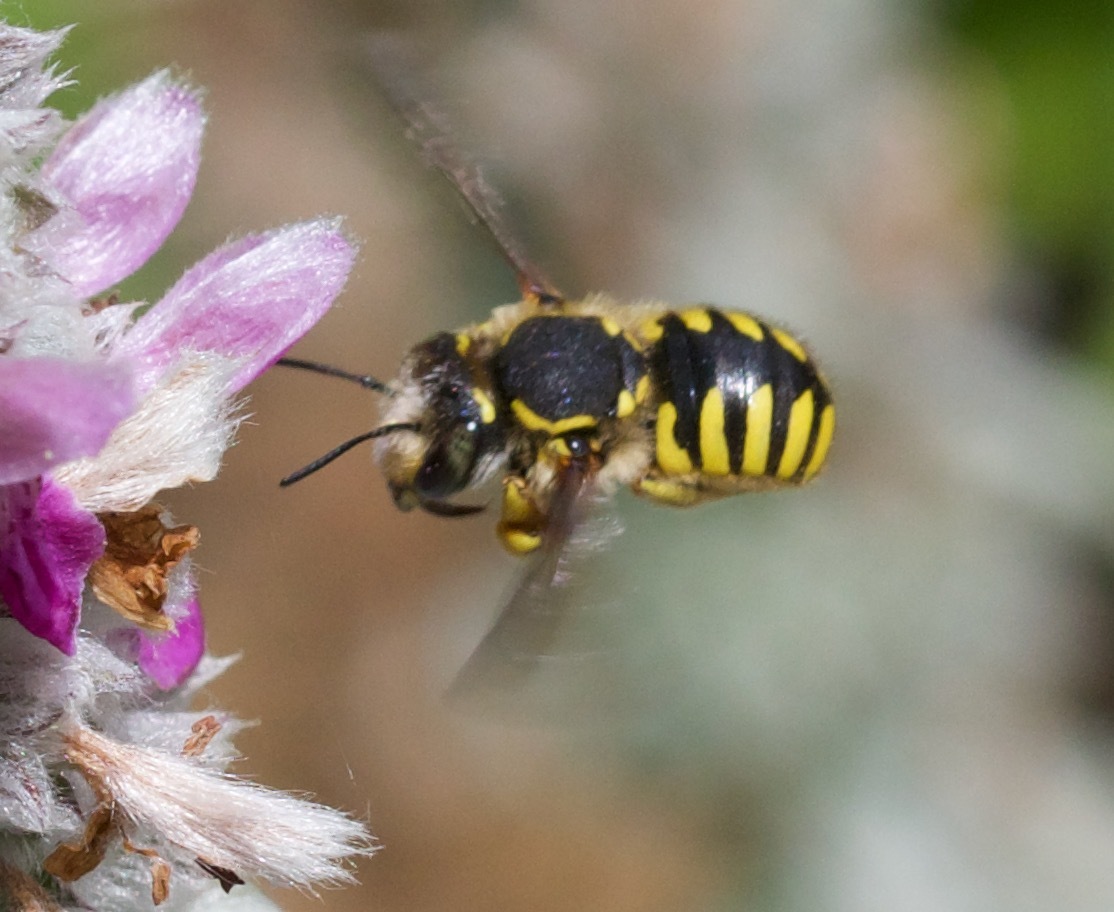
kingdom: Animalia
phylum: Arthropoda
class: Insecta
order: Hymenoptera
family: Megachilidae
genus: Anthidium
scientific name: Anthidium manicatum
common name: Wool carder bee
